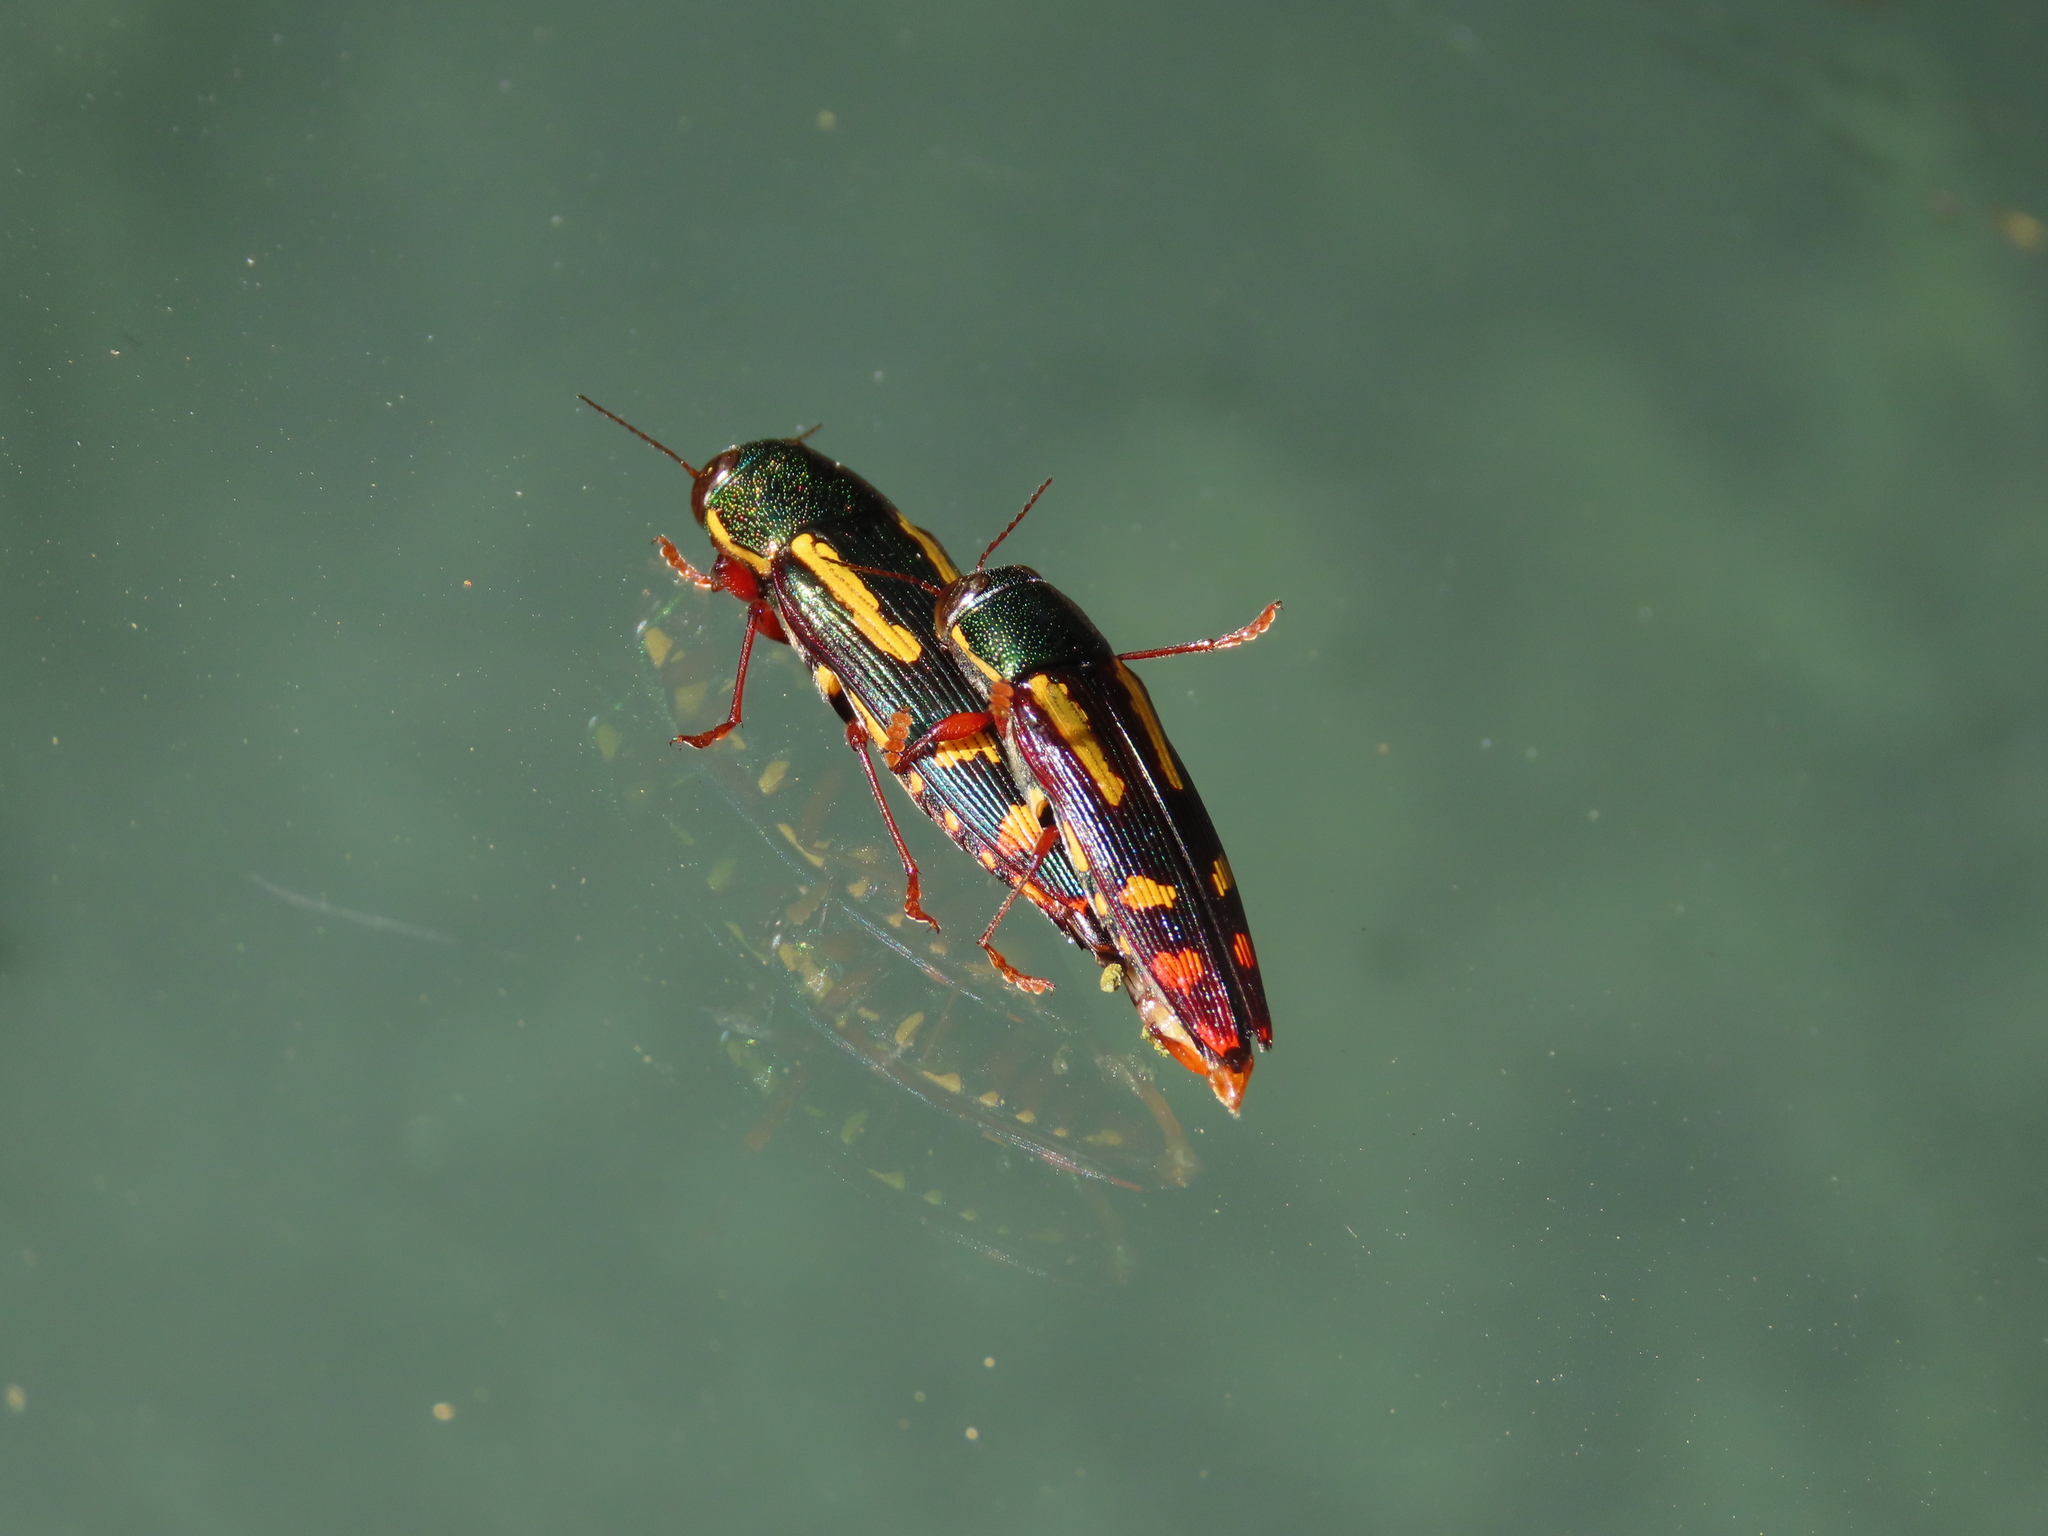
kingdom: Animalia
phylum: Arthropoda
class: Insecta
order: Coleoptera
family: Buprestidae
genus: Buprestis
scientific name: Buprestis rufipes
